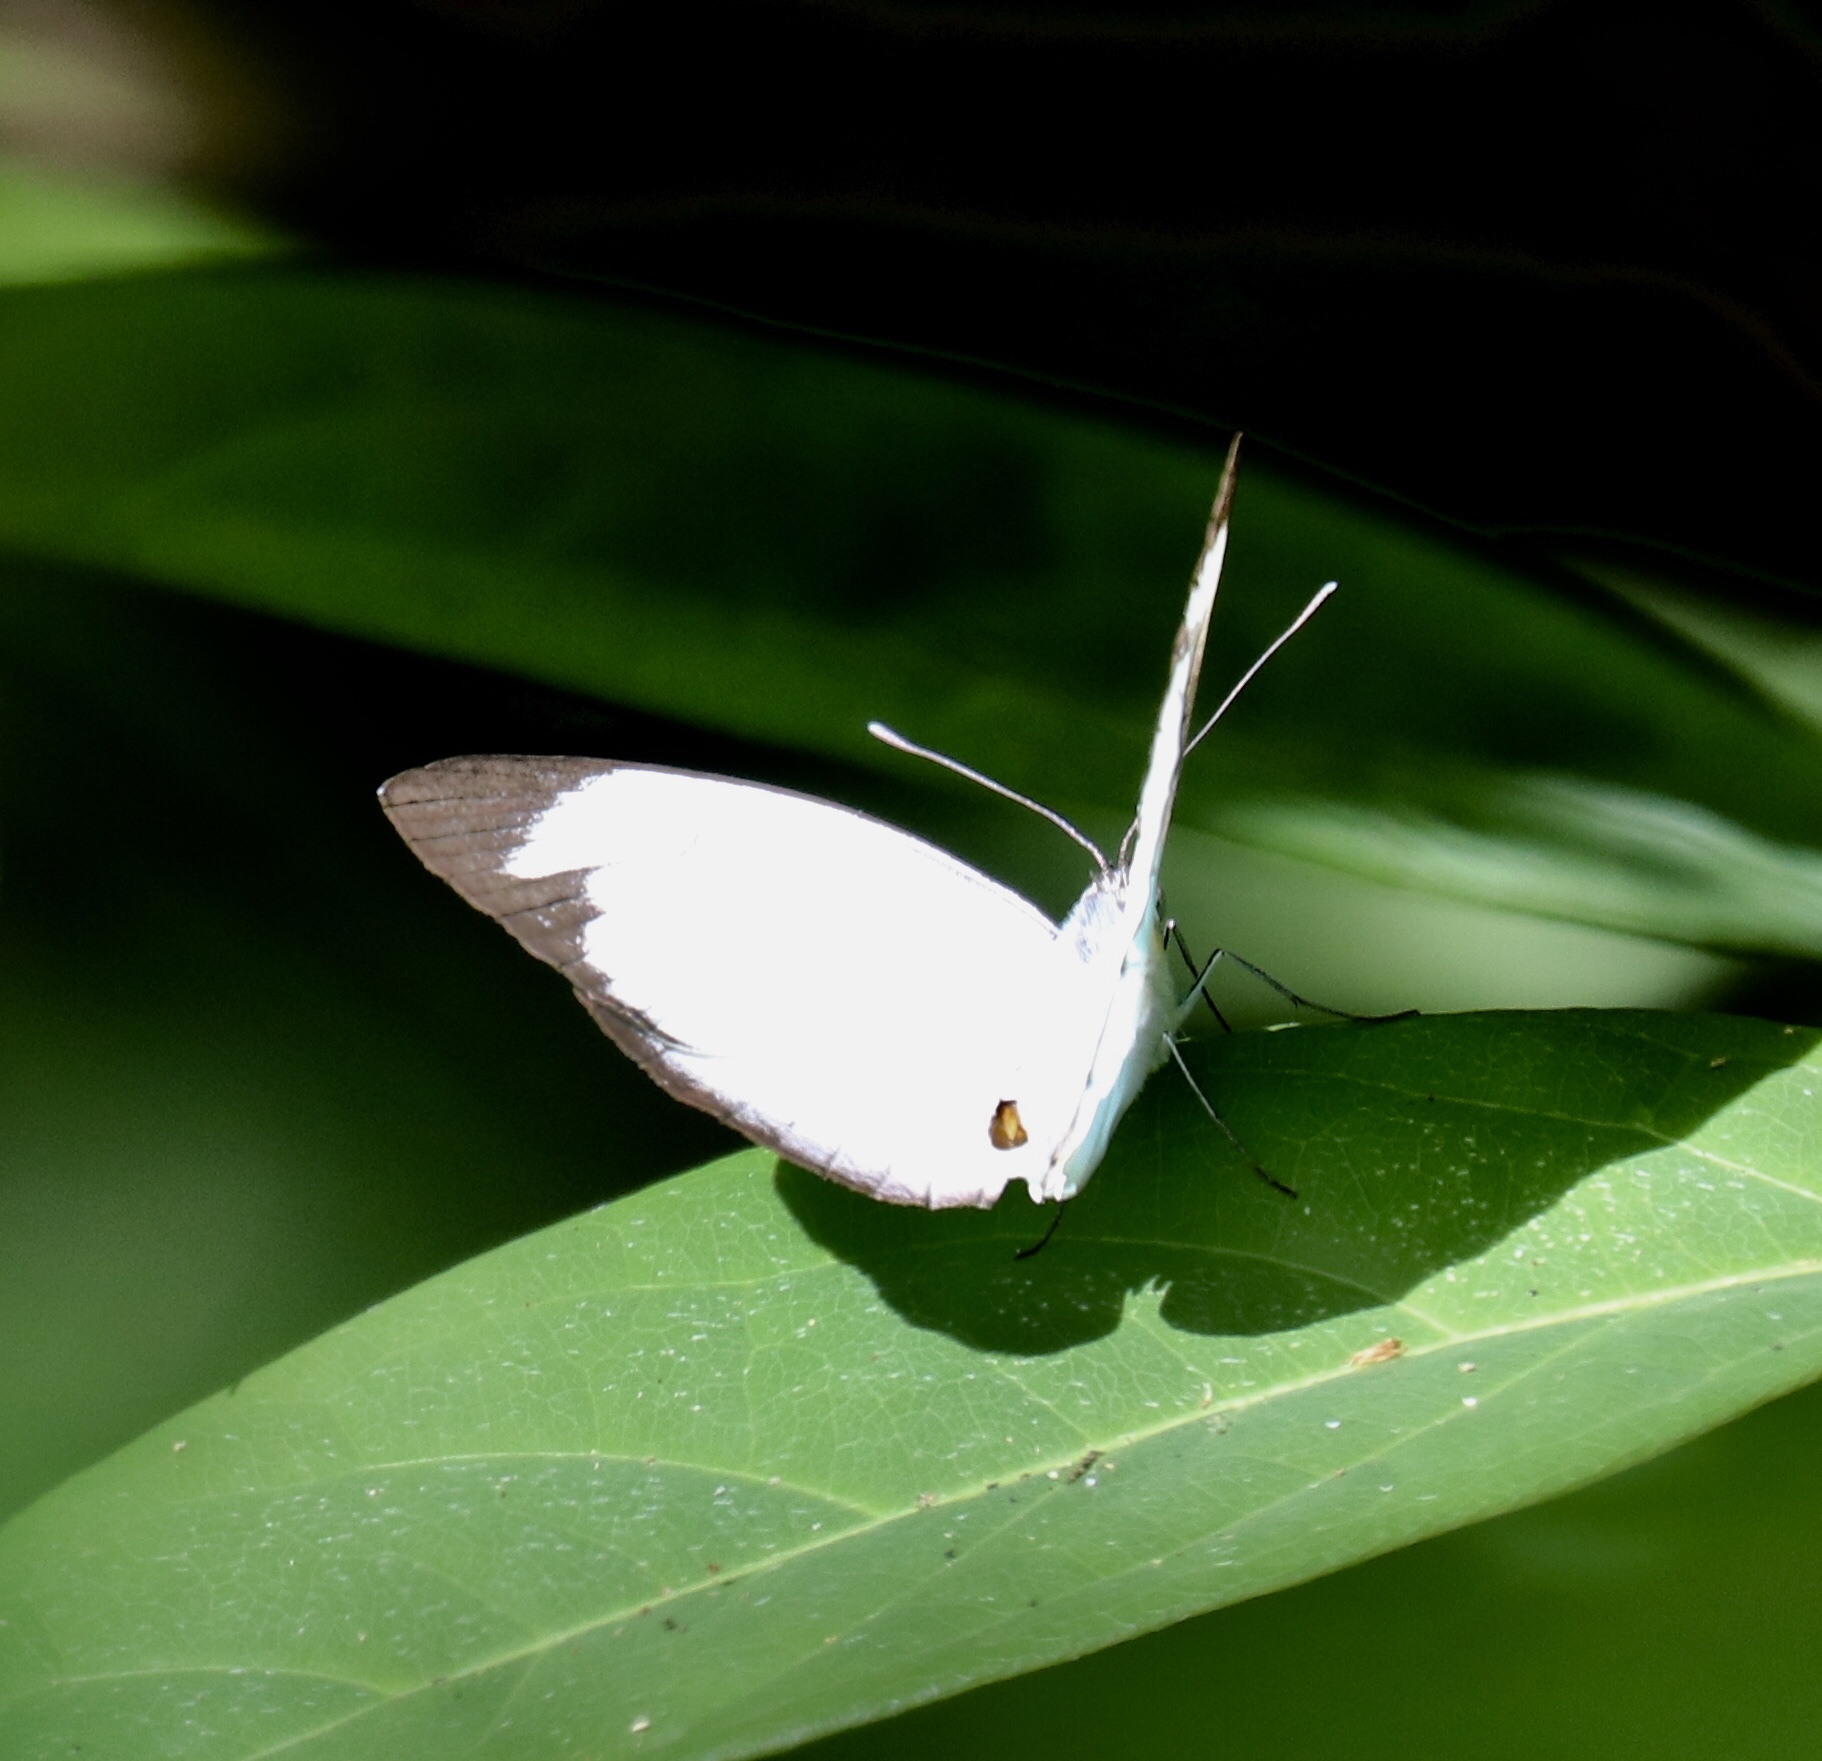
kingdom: Animalia
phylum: Arthropoda
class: Insecta
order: Lepidoptera
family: Pieridae
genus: Itaballia
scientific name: Itaballia demophile
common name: Cross-barred white
